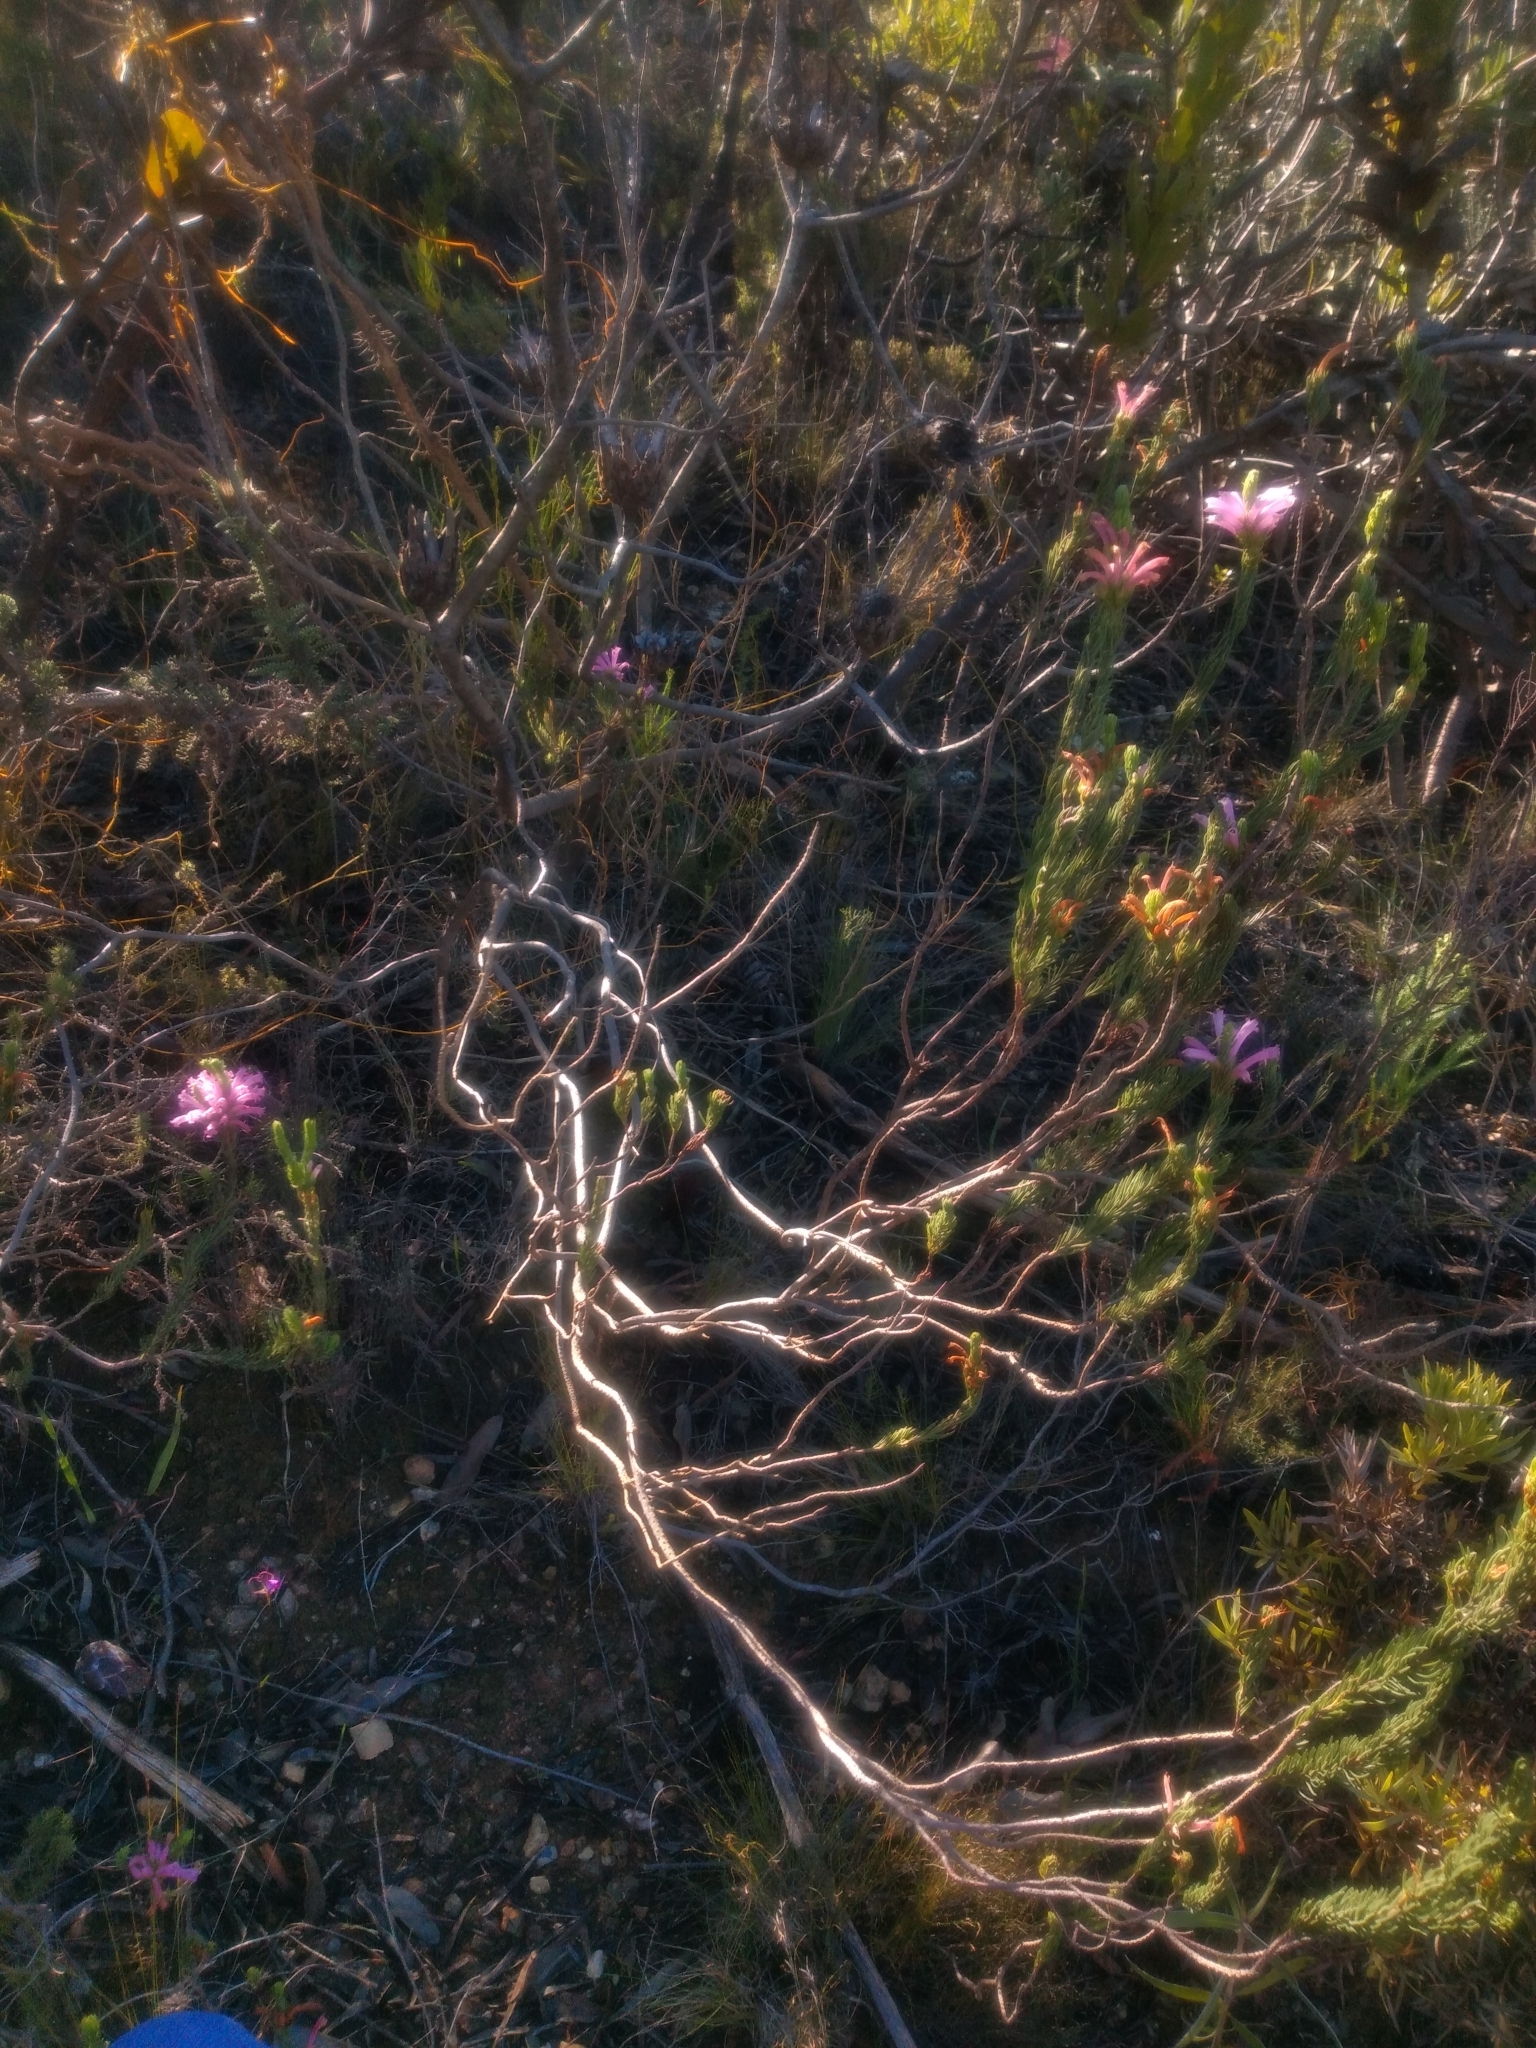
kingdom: Plantae
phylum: Tracheophyta
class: Magnoliopsida
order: Ericales
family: Ericaceae
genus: Erica
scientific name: Erica viscaria
